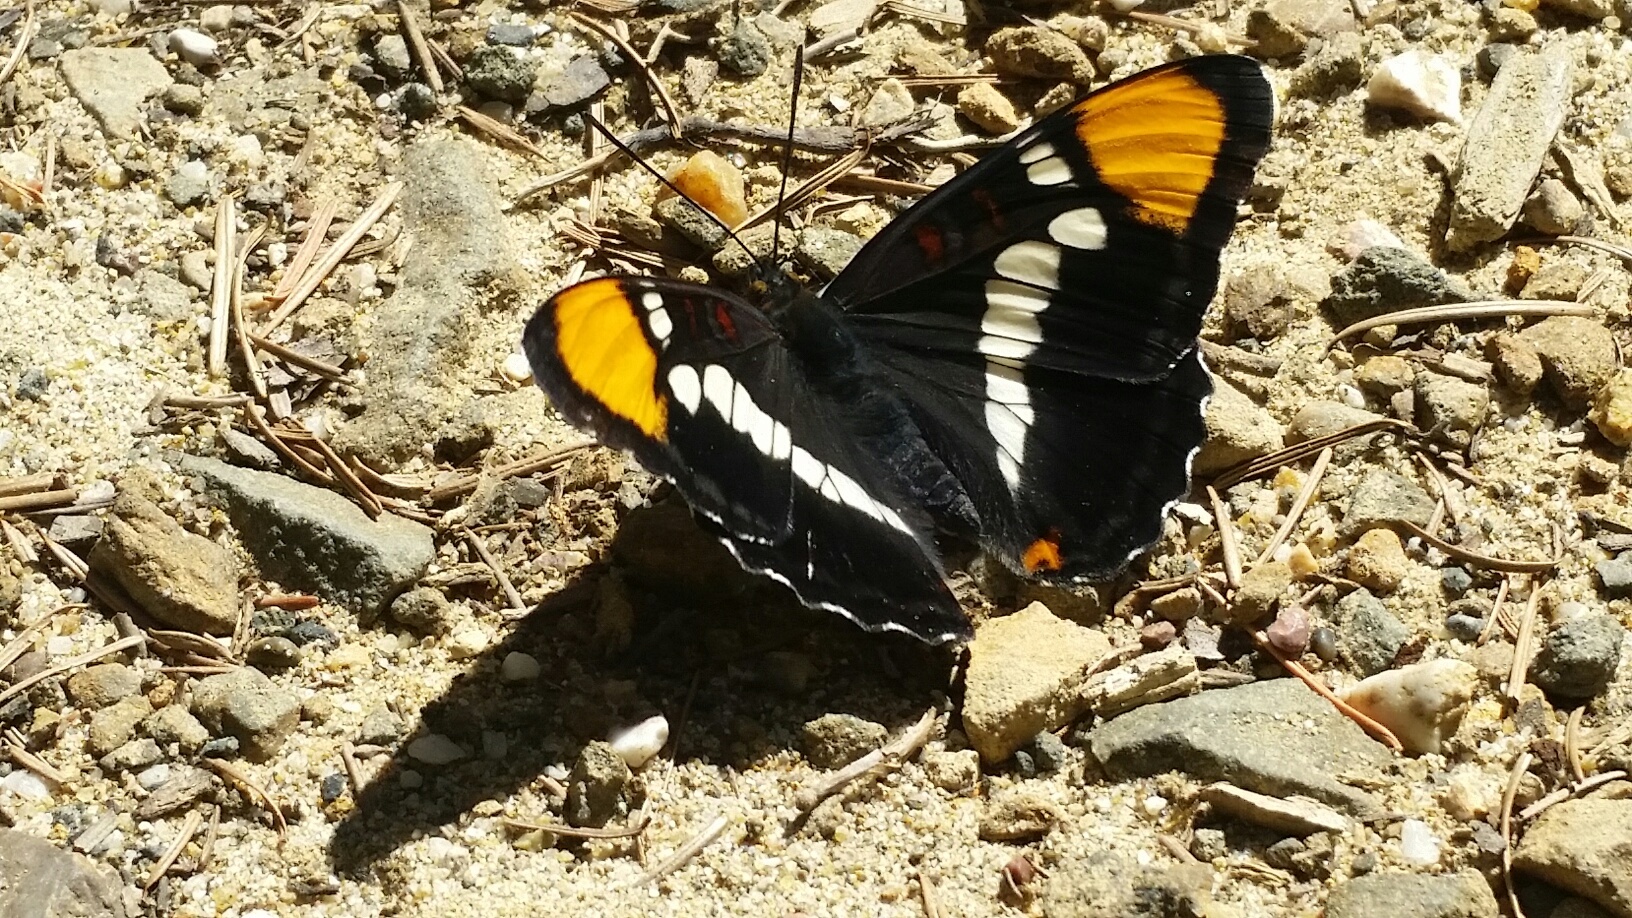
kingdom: Animalia
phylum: Arthropoda
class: Insecta
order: Lepidoptera
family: Nymphalidae
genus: Limenitis
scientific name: Limenitis bredowii
